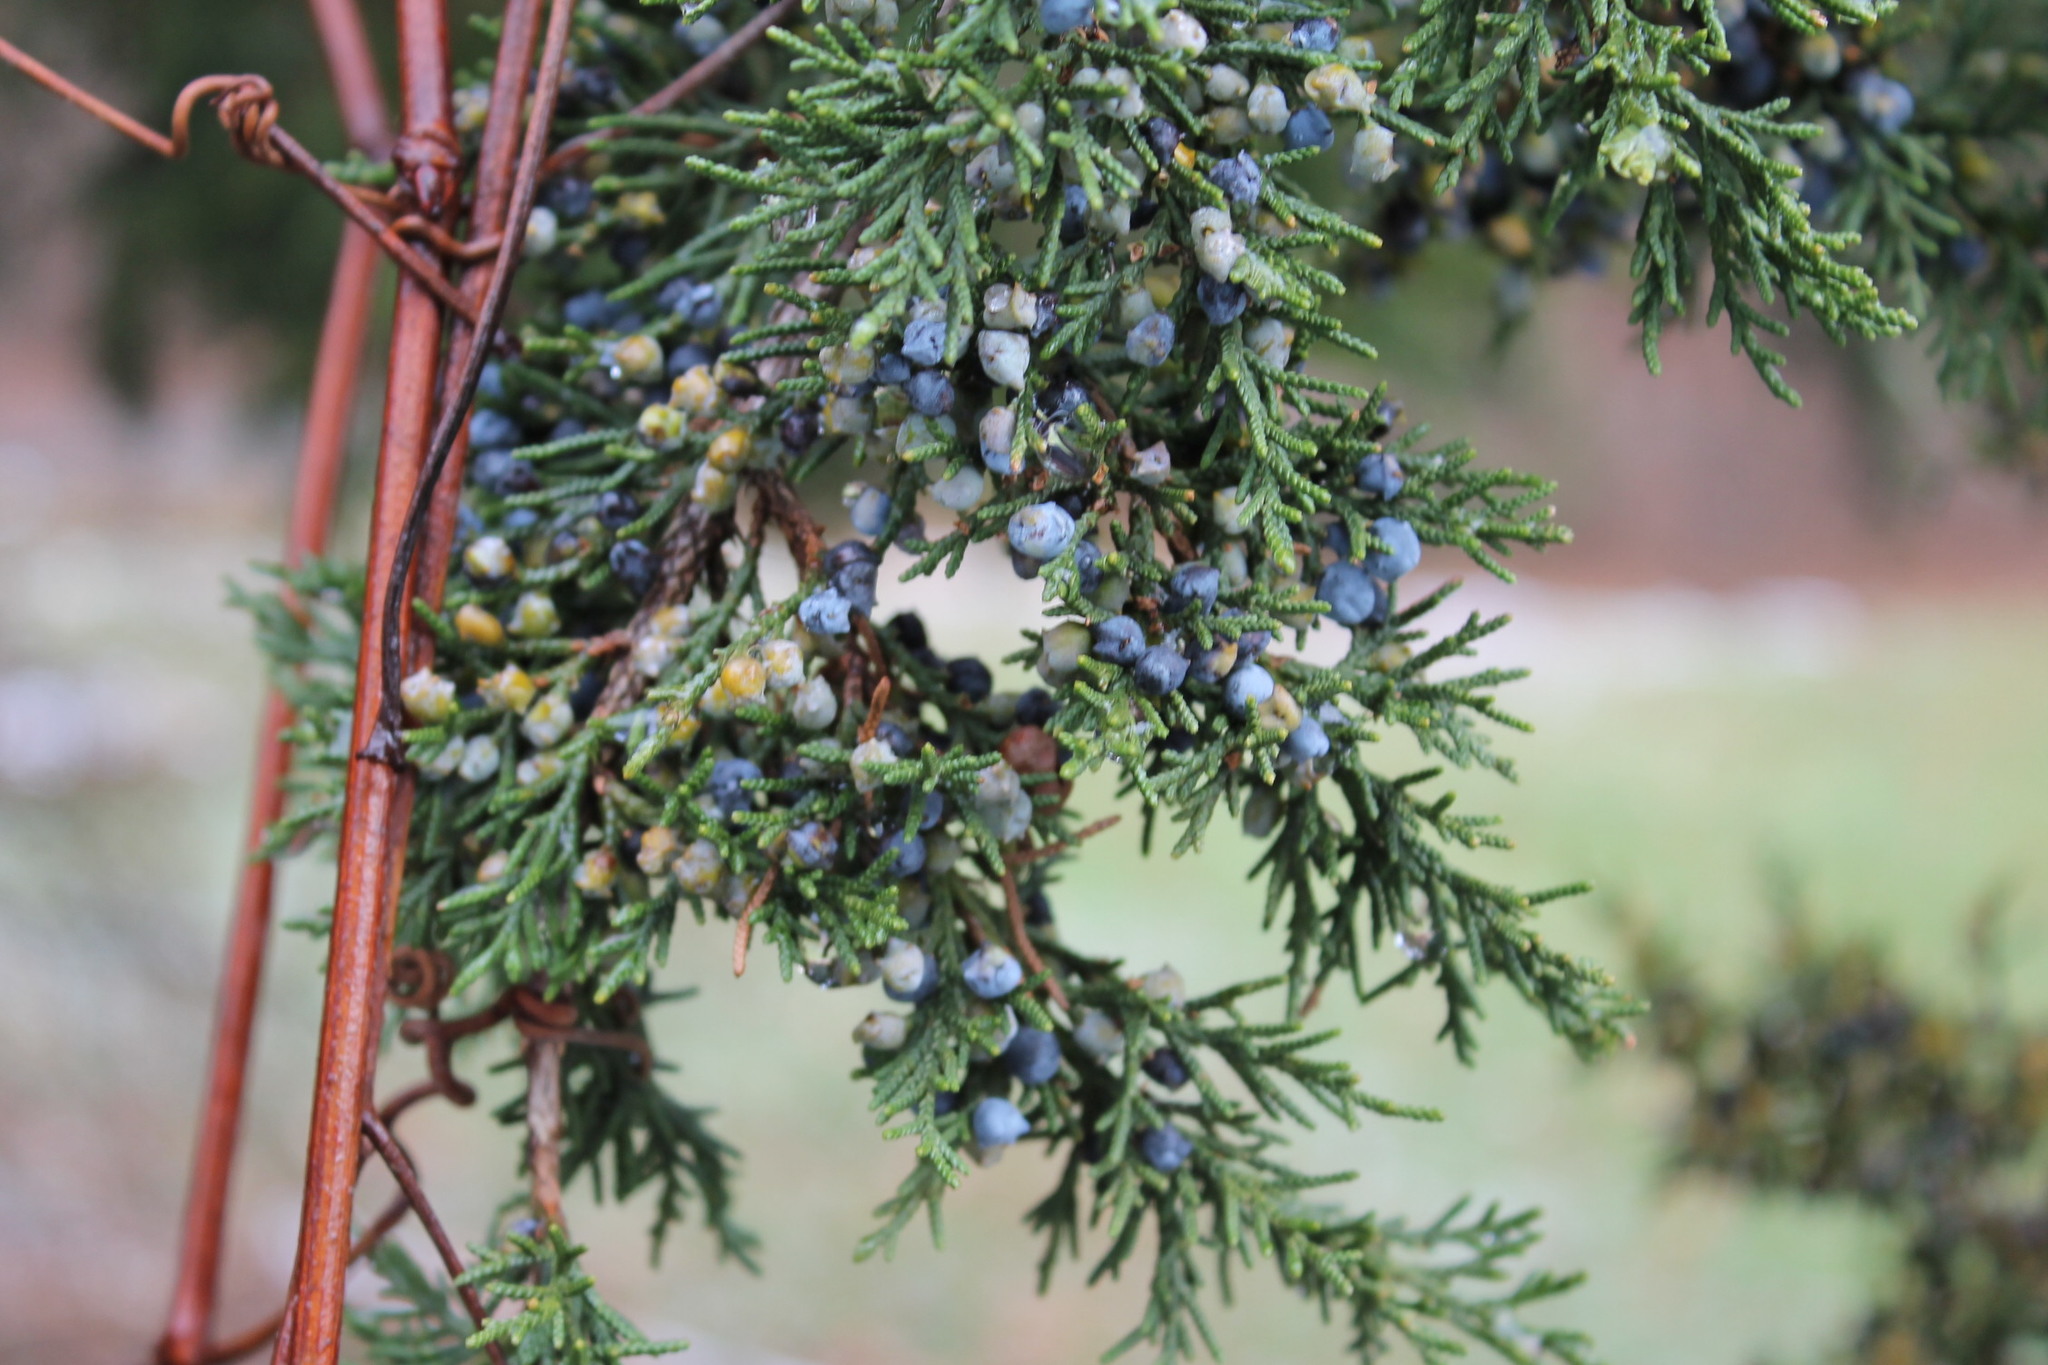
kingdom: Plantae
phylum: Tracheophyta
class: Pinopsida
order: Pinales
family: Cupressaceae
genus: Juniperus
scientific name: Juniperus virginiana
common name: Red juniper
